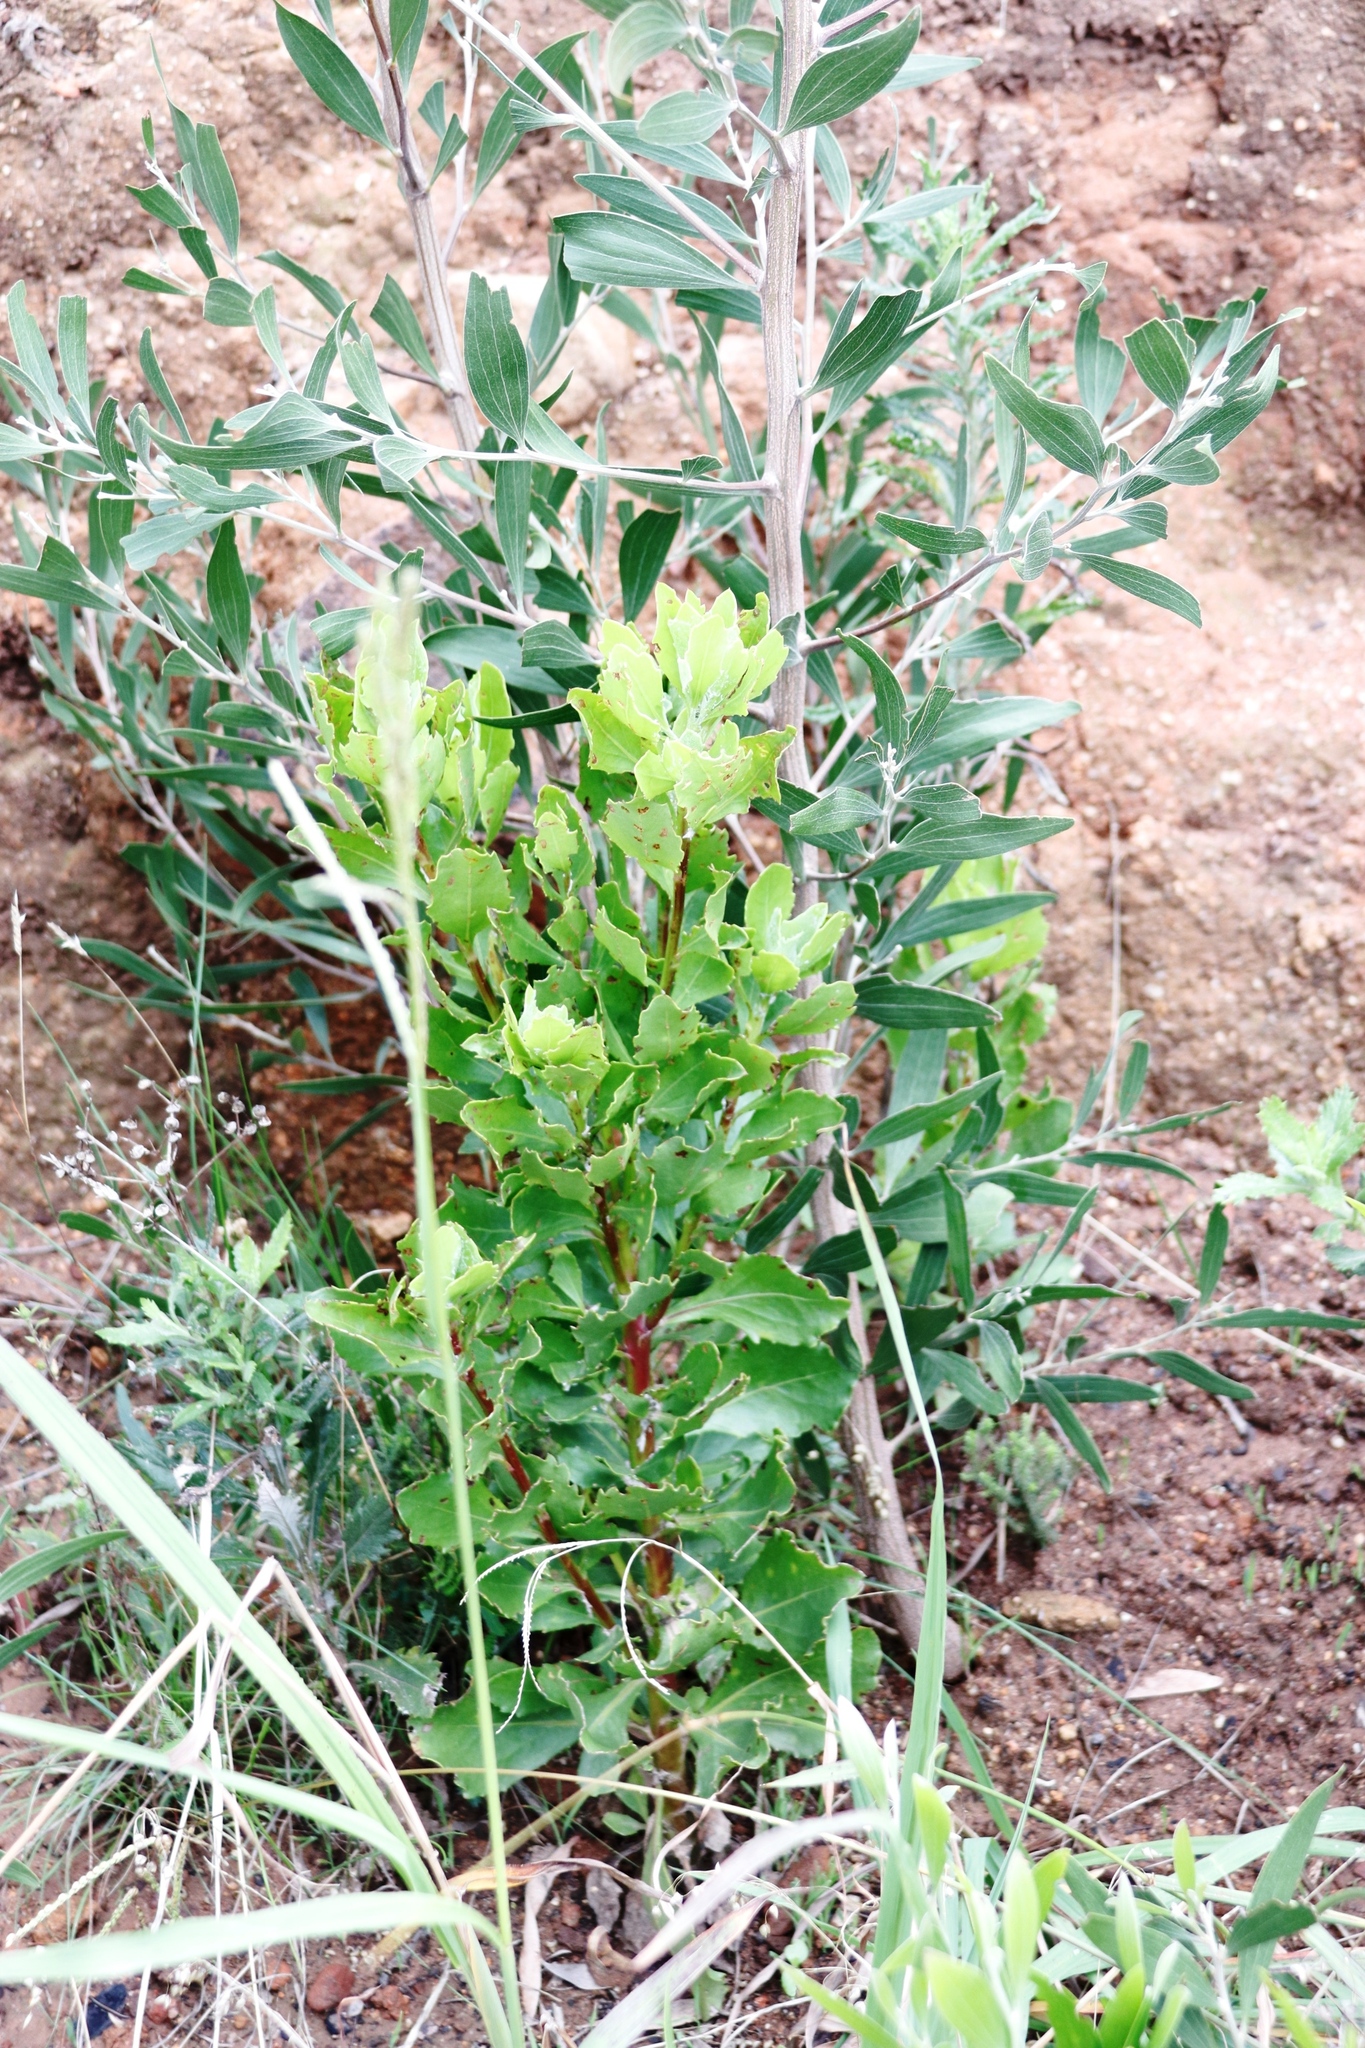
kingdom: Plantae
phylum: Tracheophyta
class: Magnoliopsida
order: Asterales
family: Asteraceae
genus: Osteospermum
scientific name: Osteospermum moniliferum
